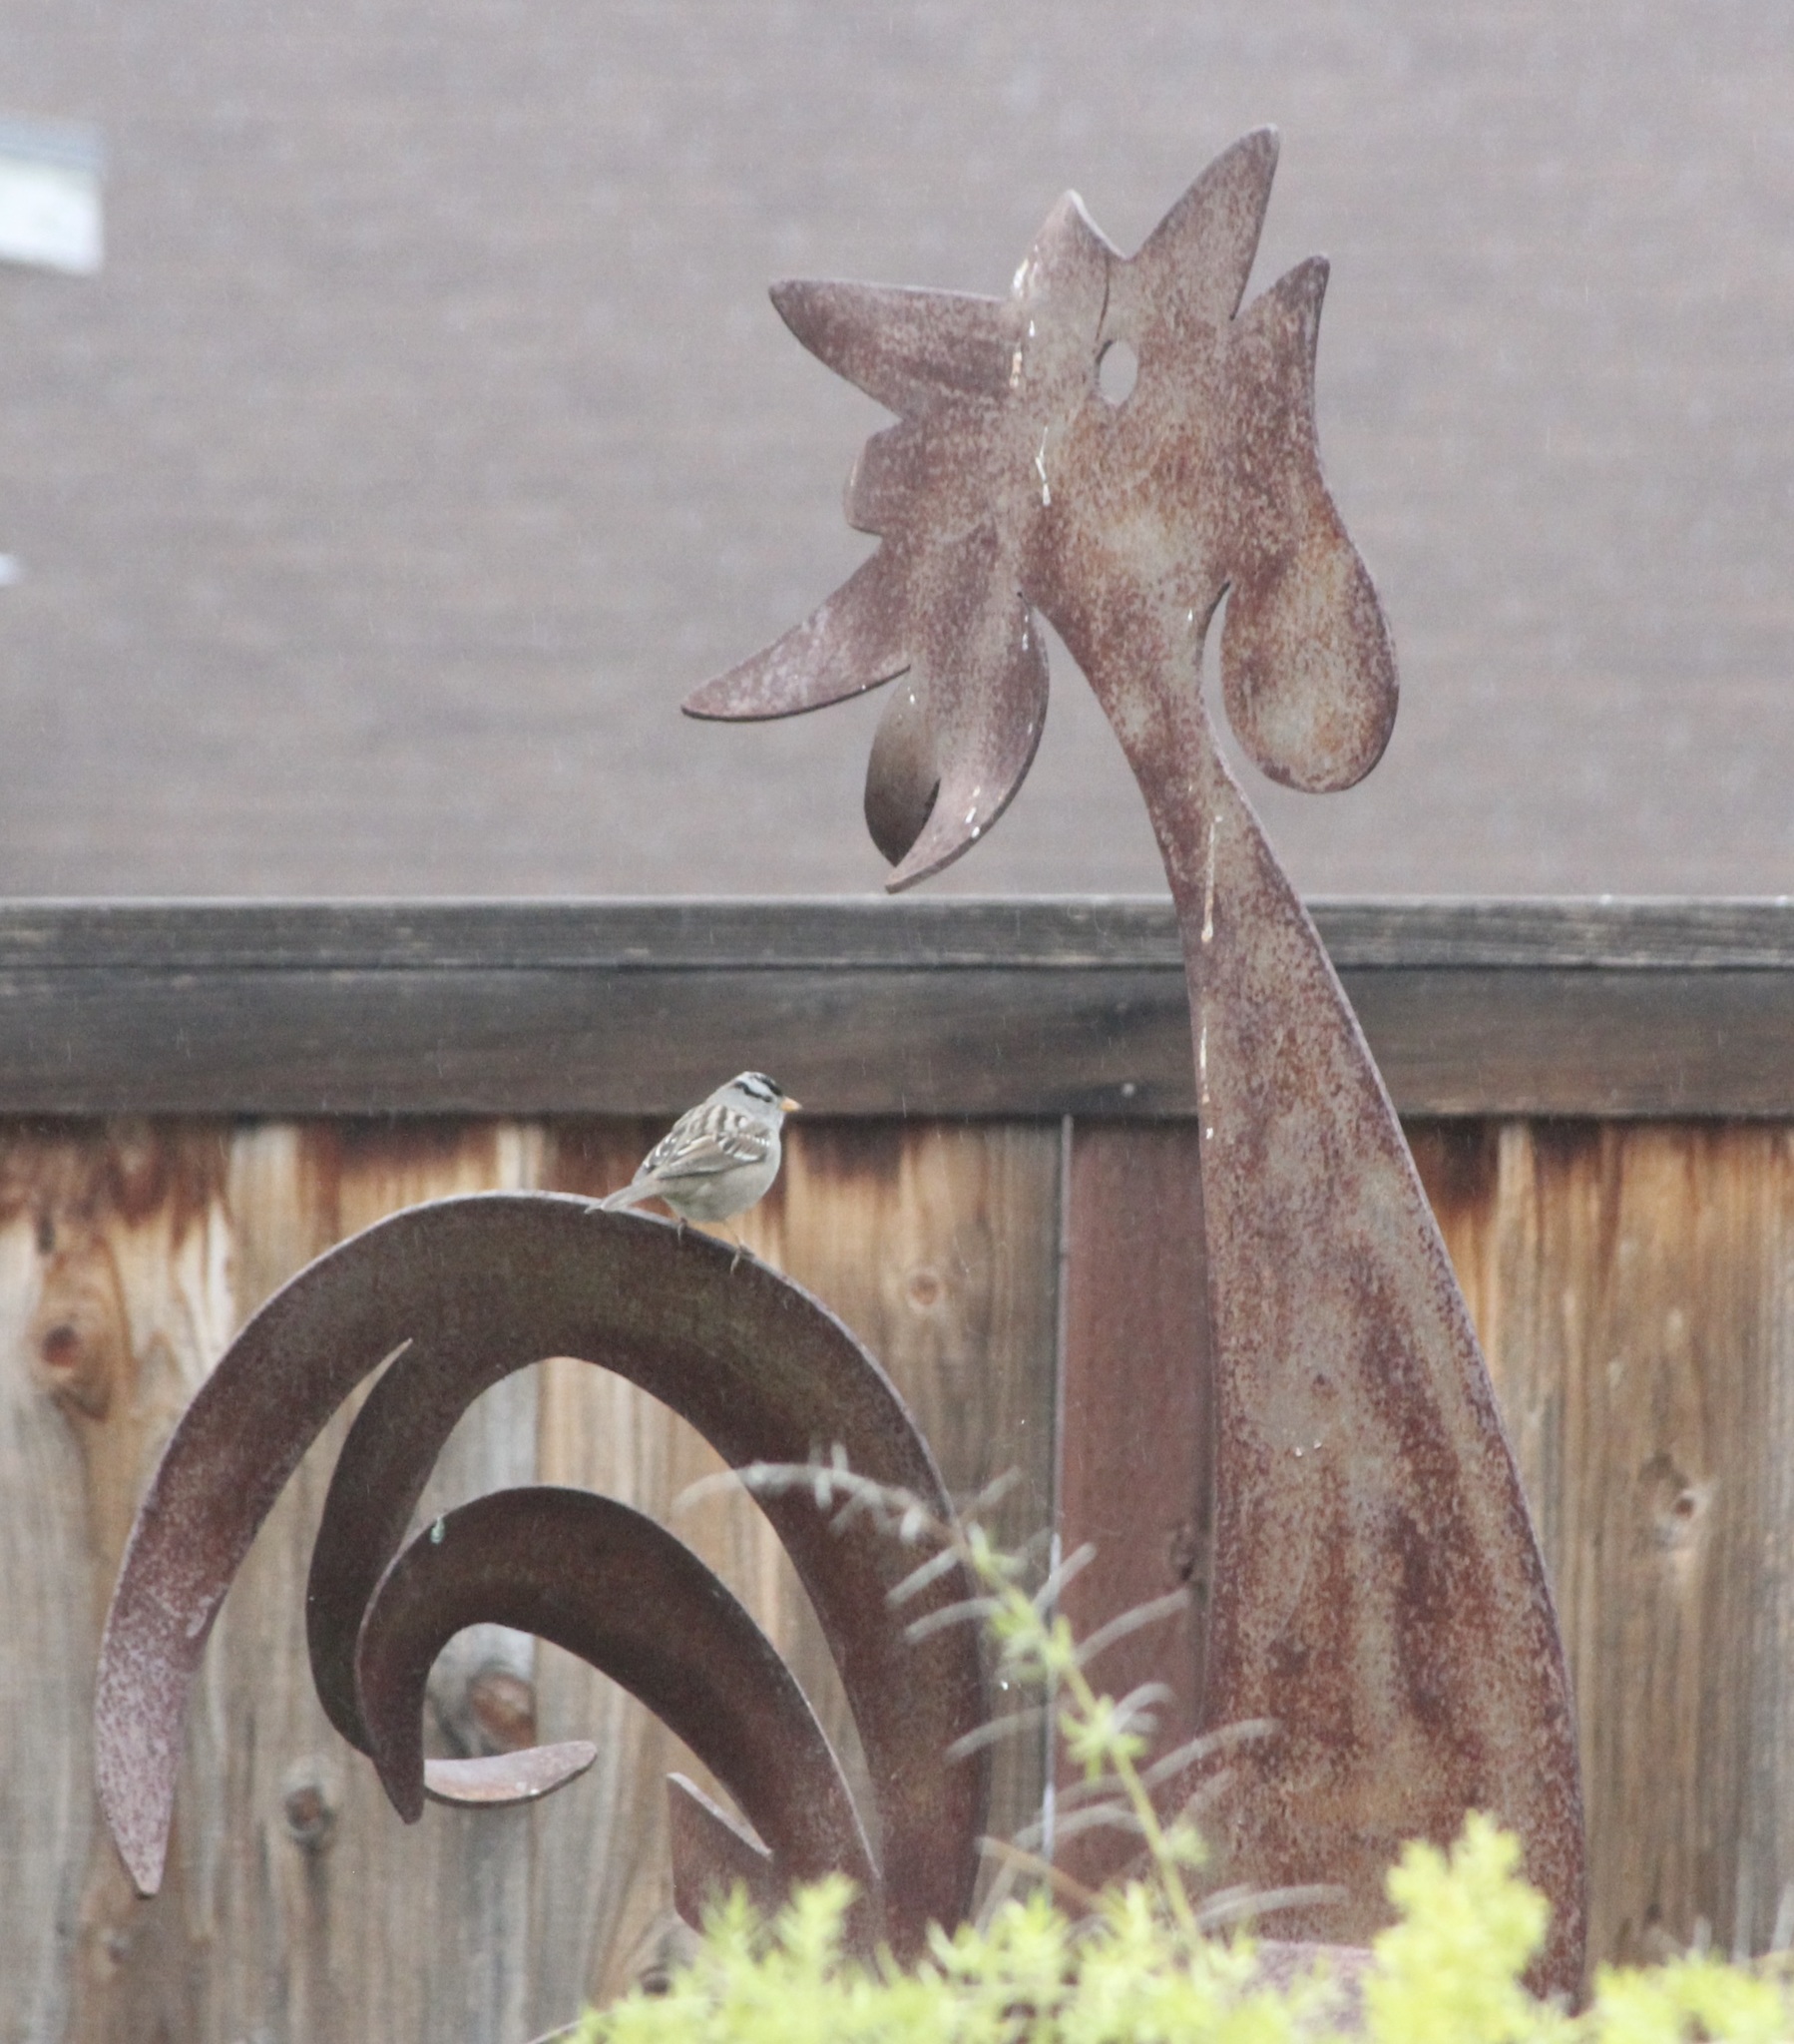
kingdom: Animalia
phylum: Chordata
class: Aves
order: Passeriformes
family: Passerellidae
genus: Zonotrichia
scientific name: Zonotrichia leucophrys
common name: White-crowned sparrow
